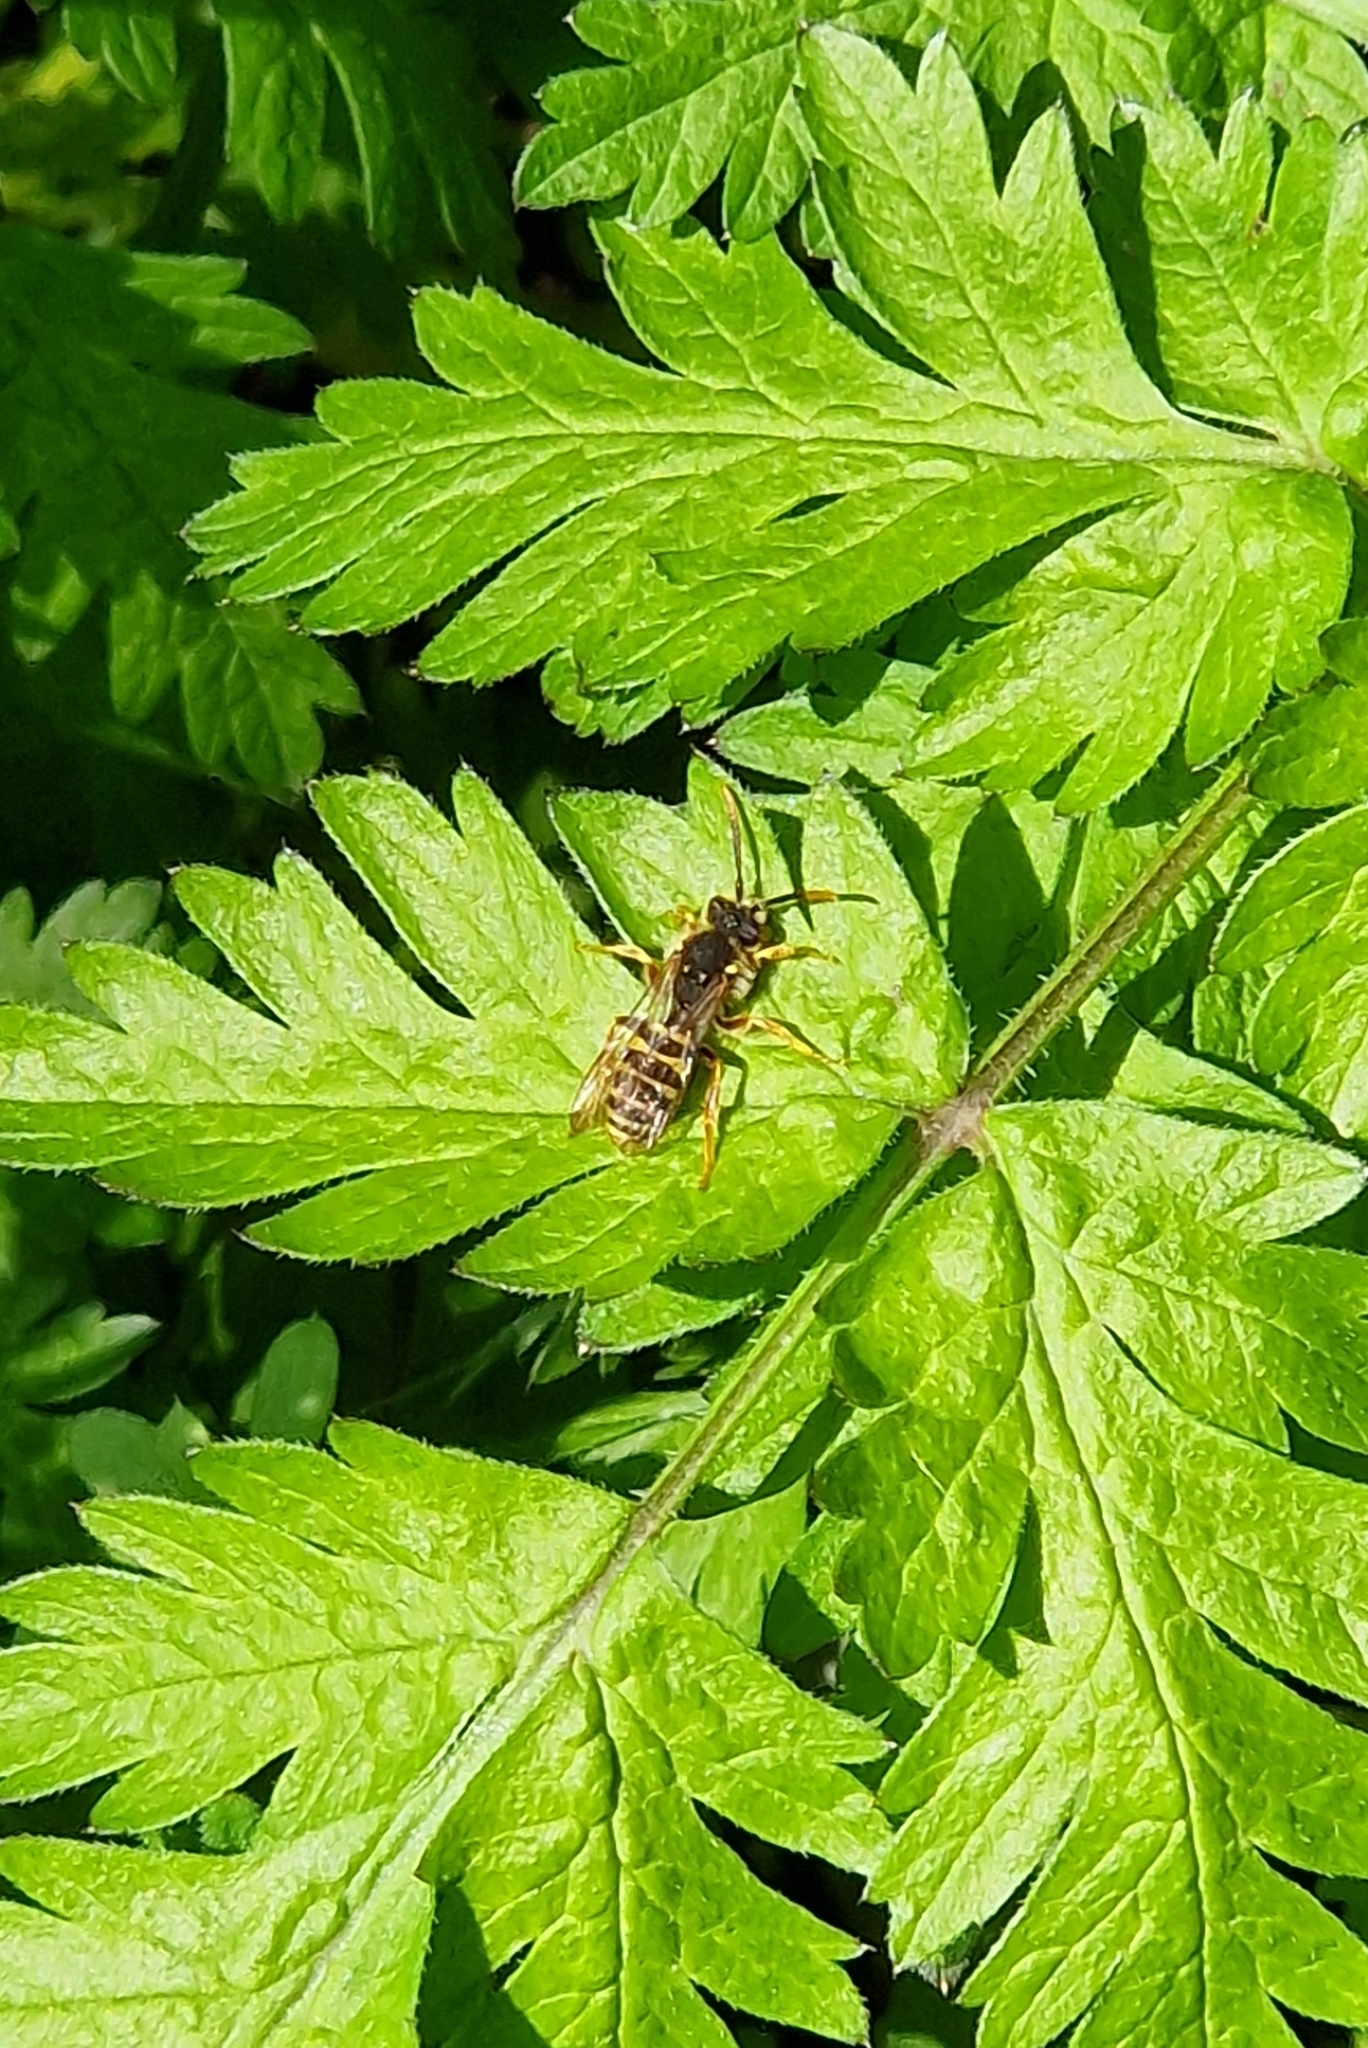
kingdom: Animalia
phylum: Arthropoda
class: Insecta
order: Hymenoptera
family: Apidae
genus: Nomada
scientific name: Nomada goodeniana
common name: Gooden's nomad bee
